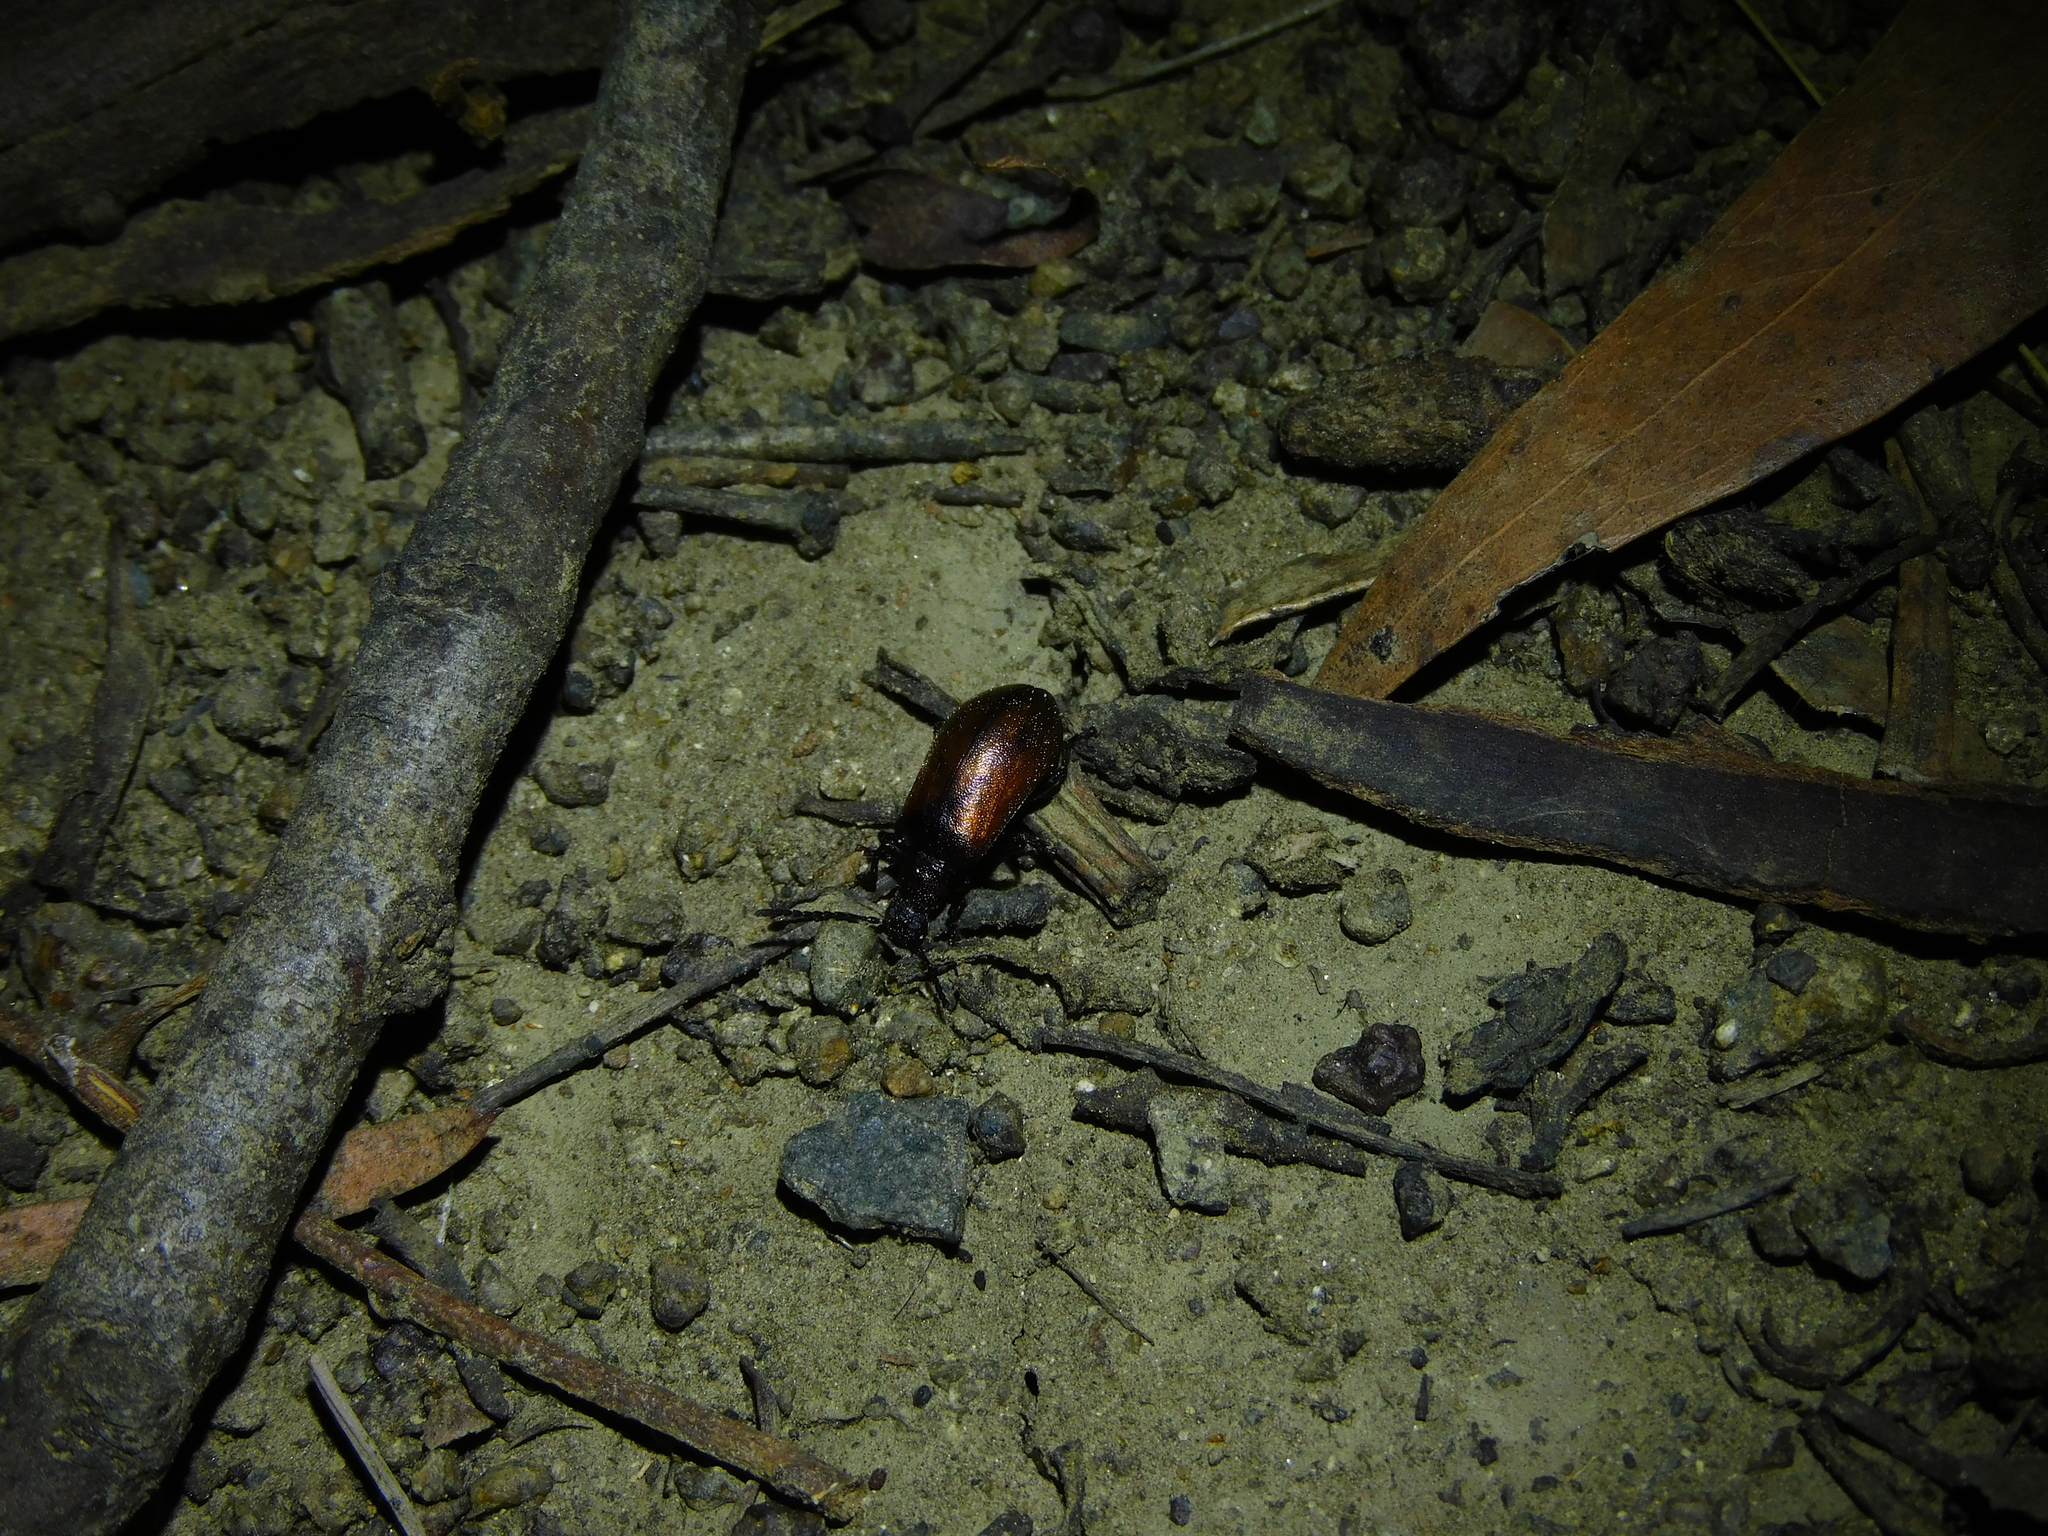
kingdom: Animalia
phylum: Arthropoda
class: Insecta
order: Coleoptera
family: Tenebrionidae
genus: Ecnolagria
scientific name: Ecnolagria
